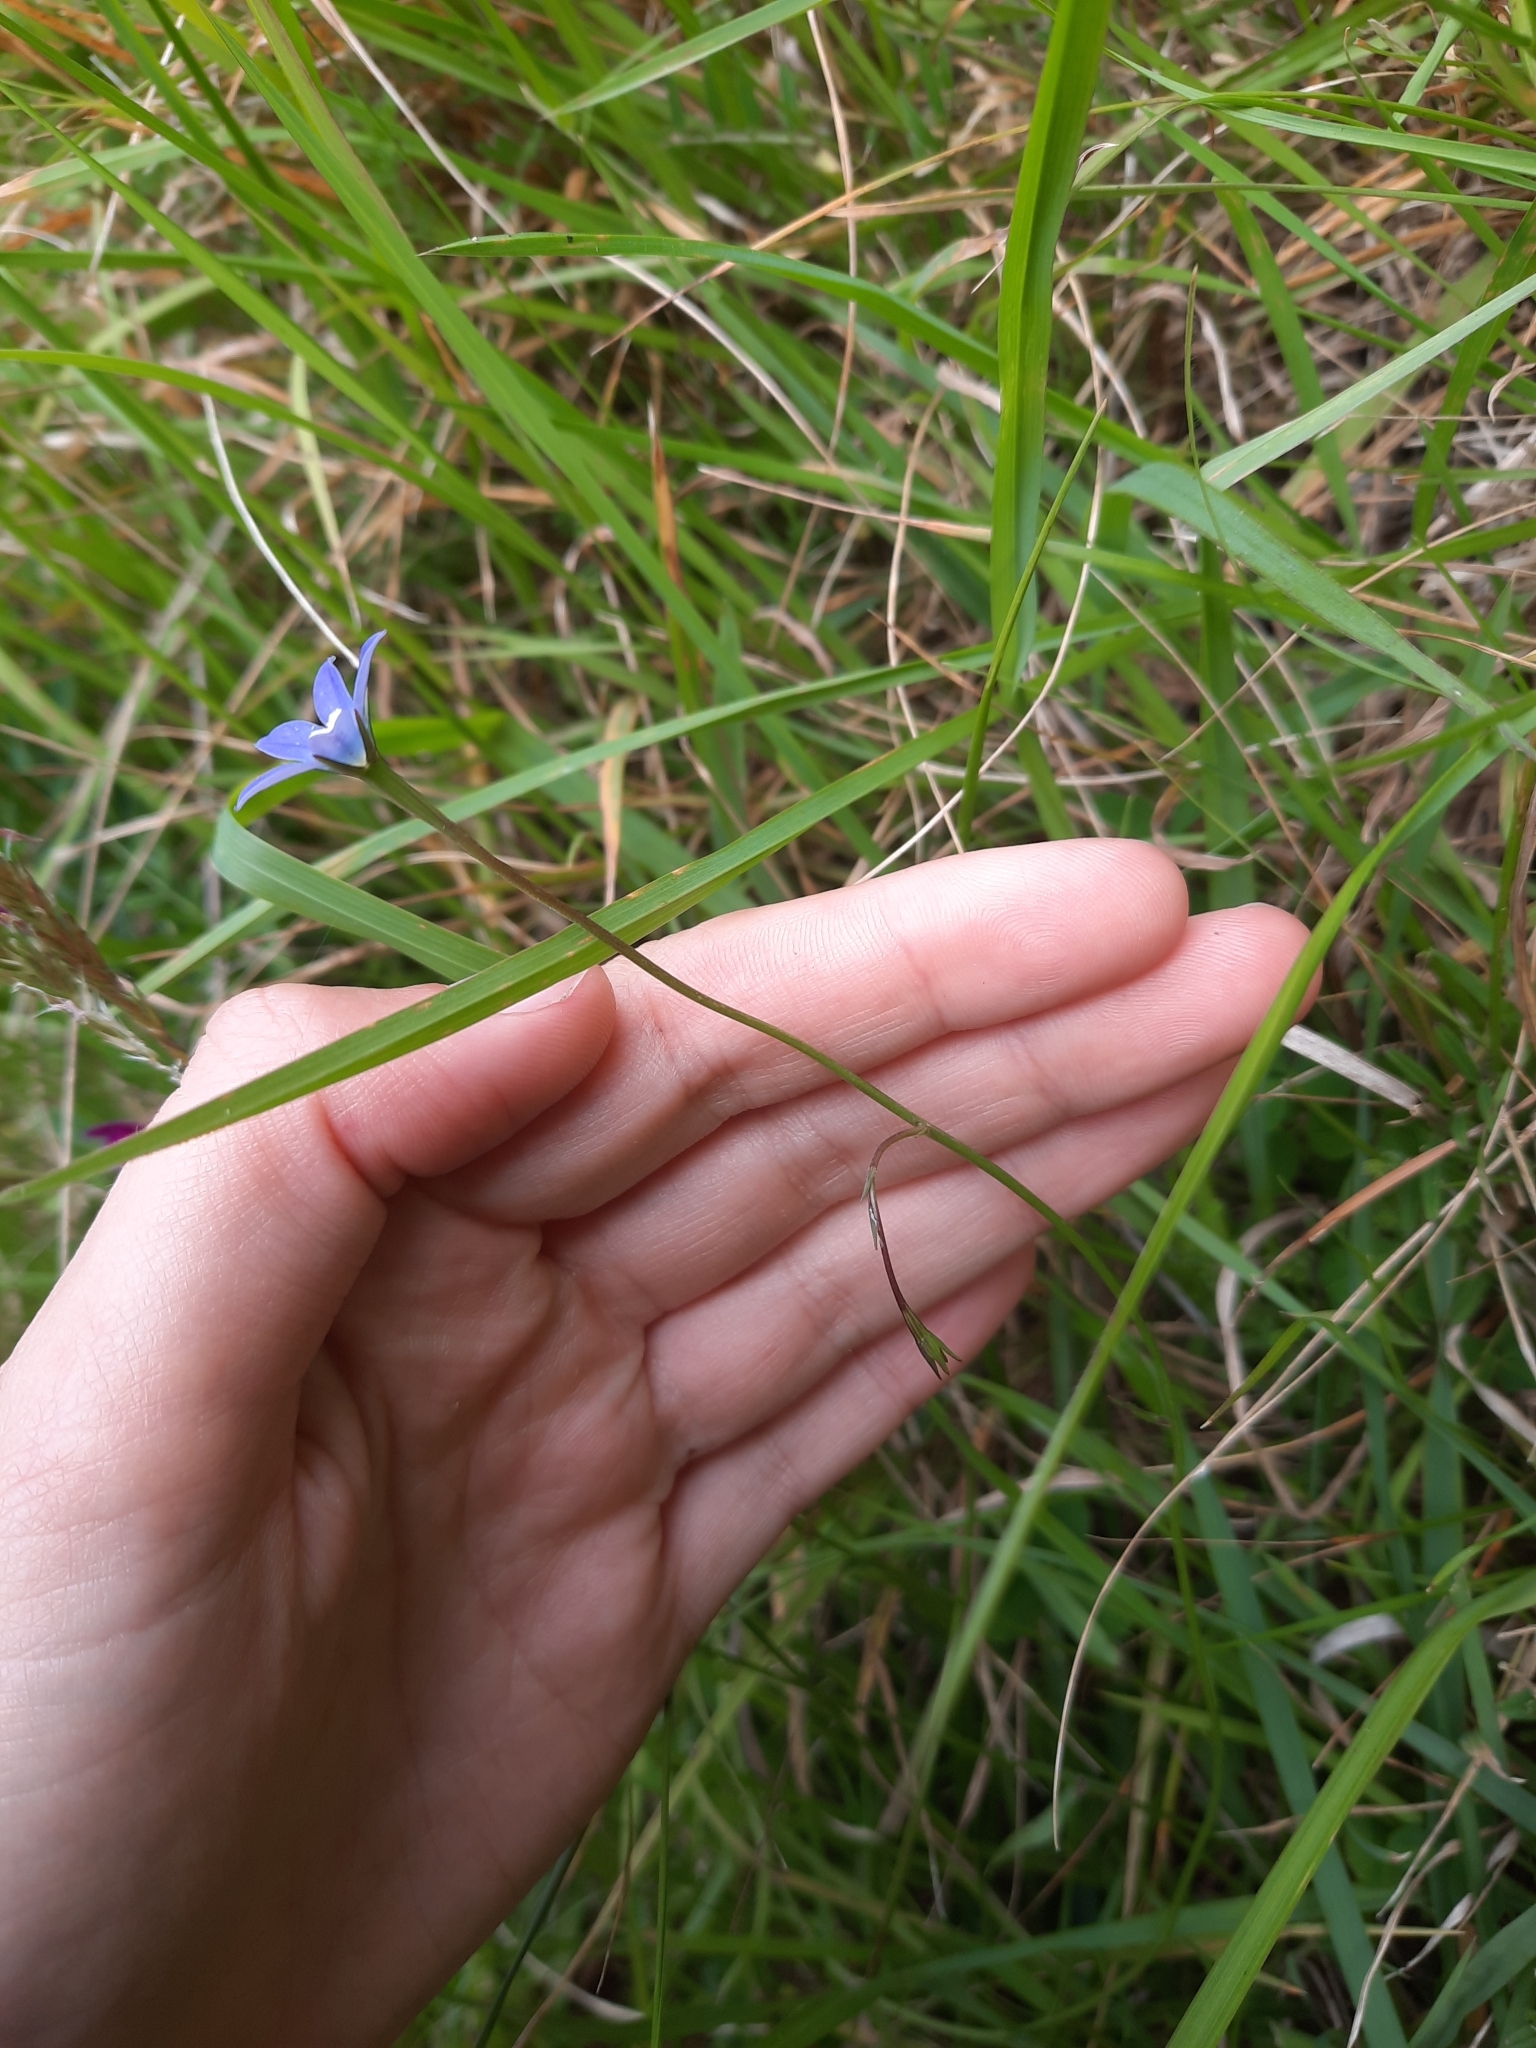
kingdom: Plantae
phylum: Tracheophyta
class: Magnoliopsida
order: Asterales
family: Campanulaceae
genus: Wahlenbergia
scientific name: Wahlenbergia violacea
